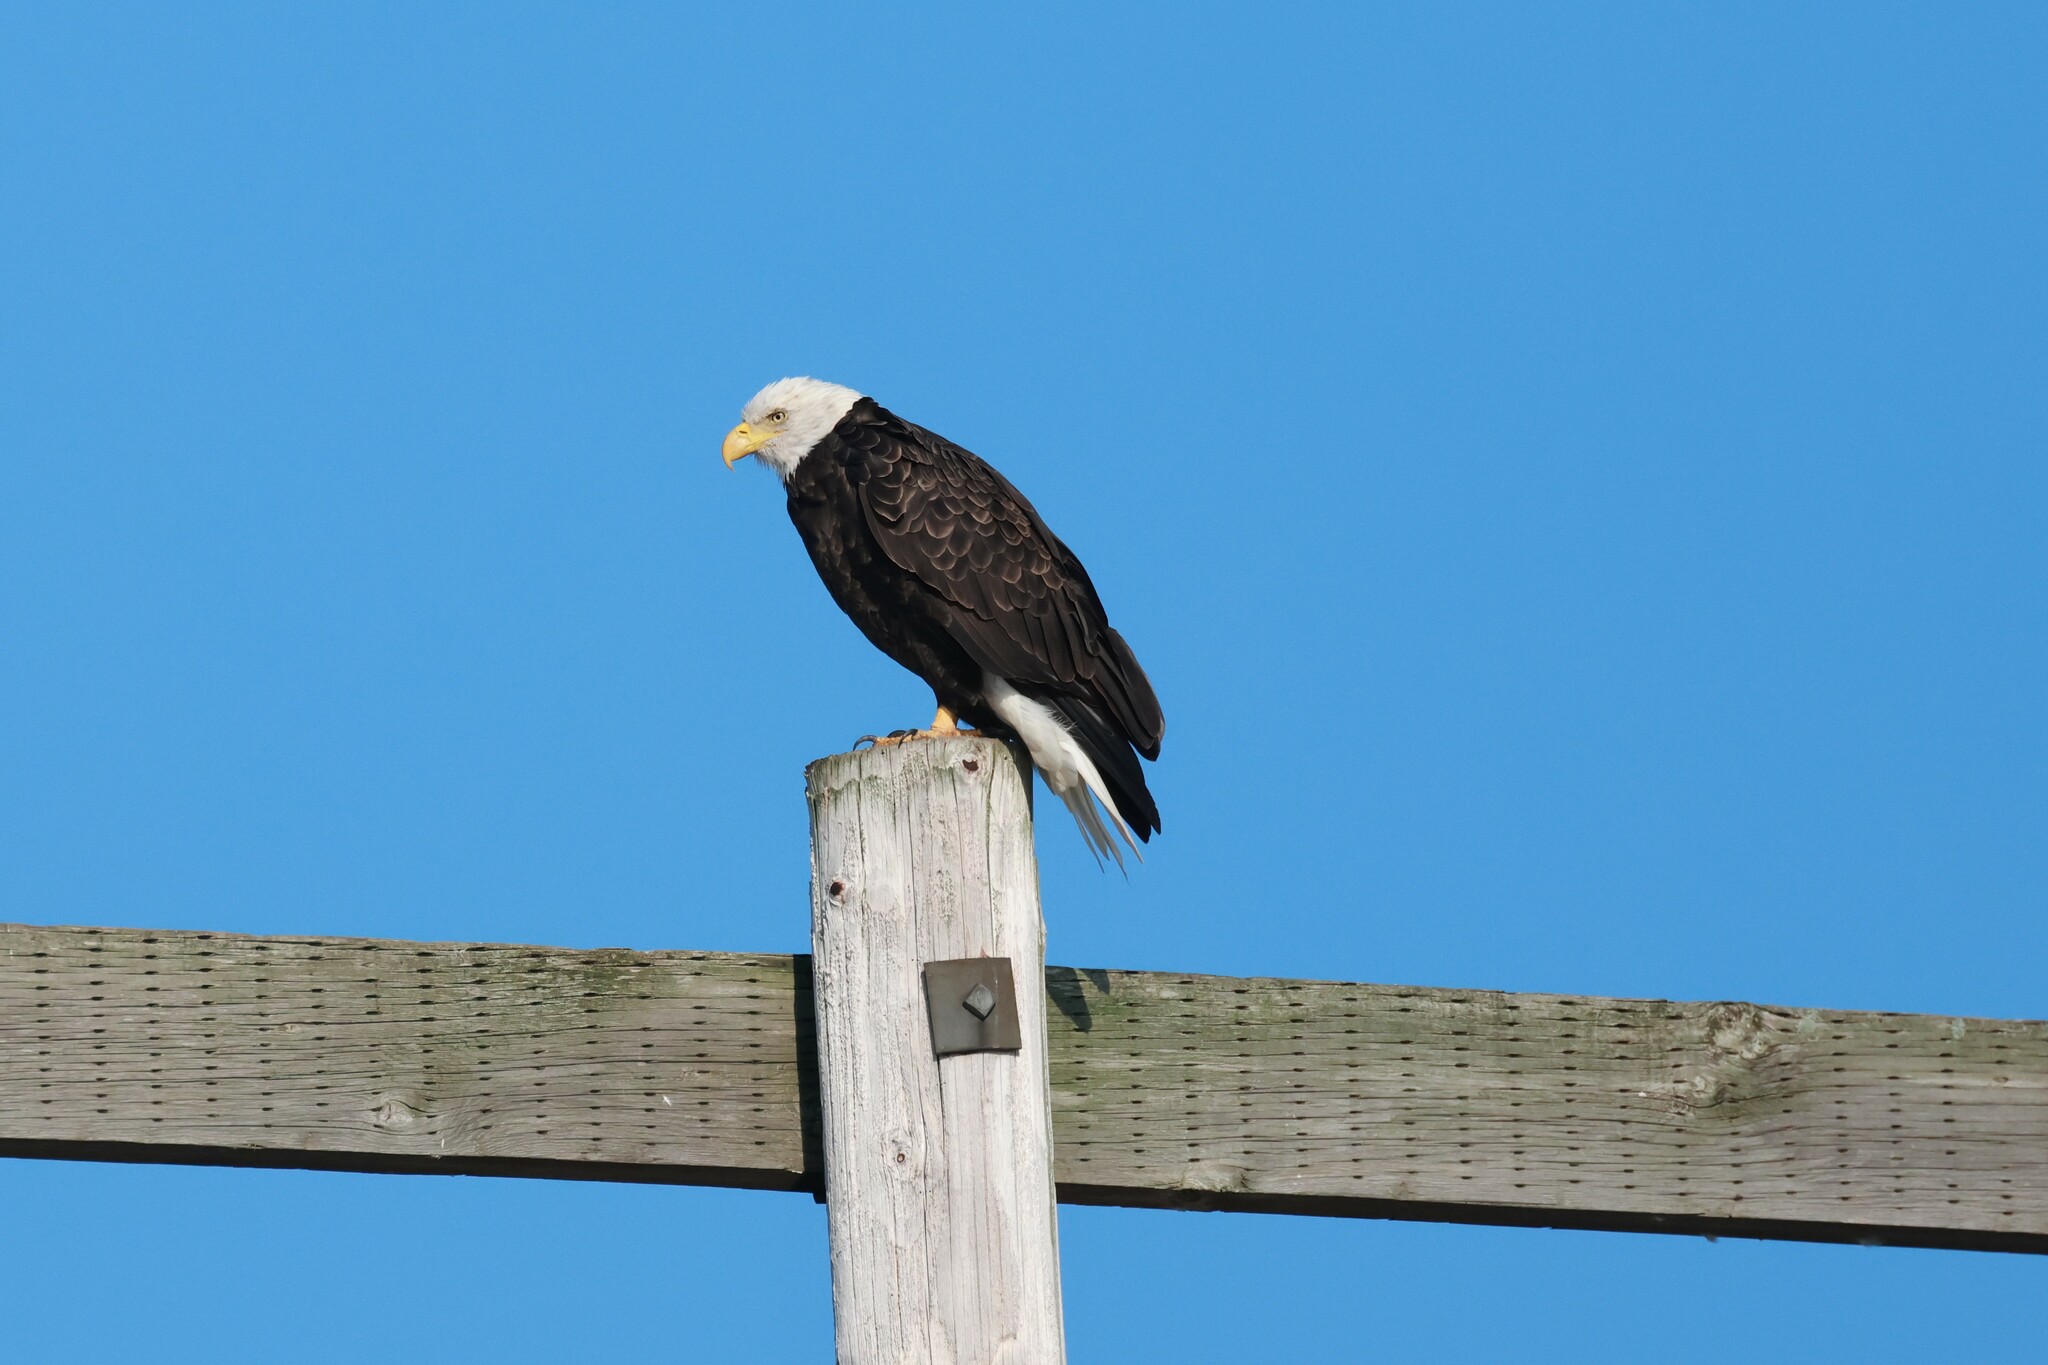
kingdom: Animalia
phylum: Chordata
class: Aves
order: Accipitriformes
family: Accipitridae
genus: Haliaeetus
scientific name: Haliaeetus leucocephalus
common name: Bald eagle
